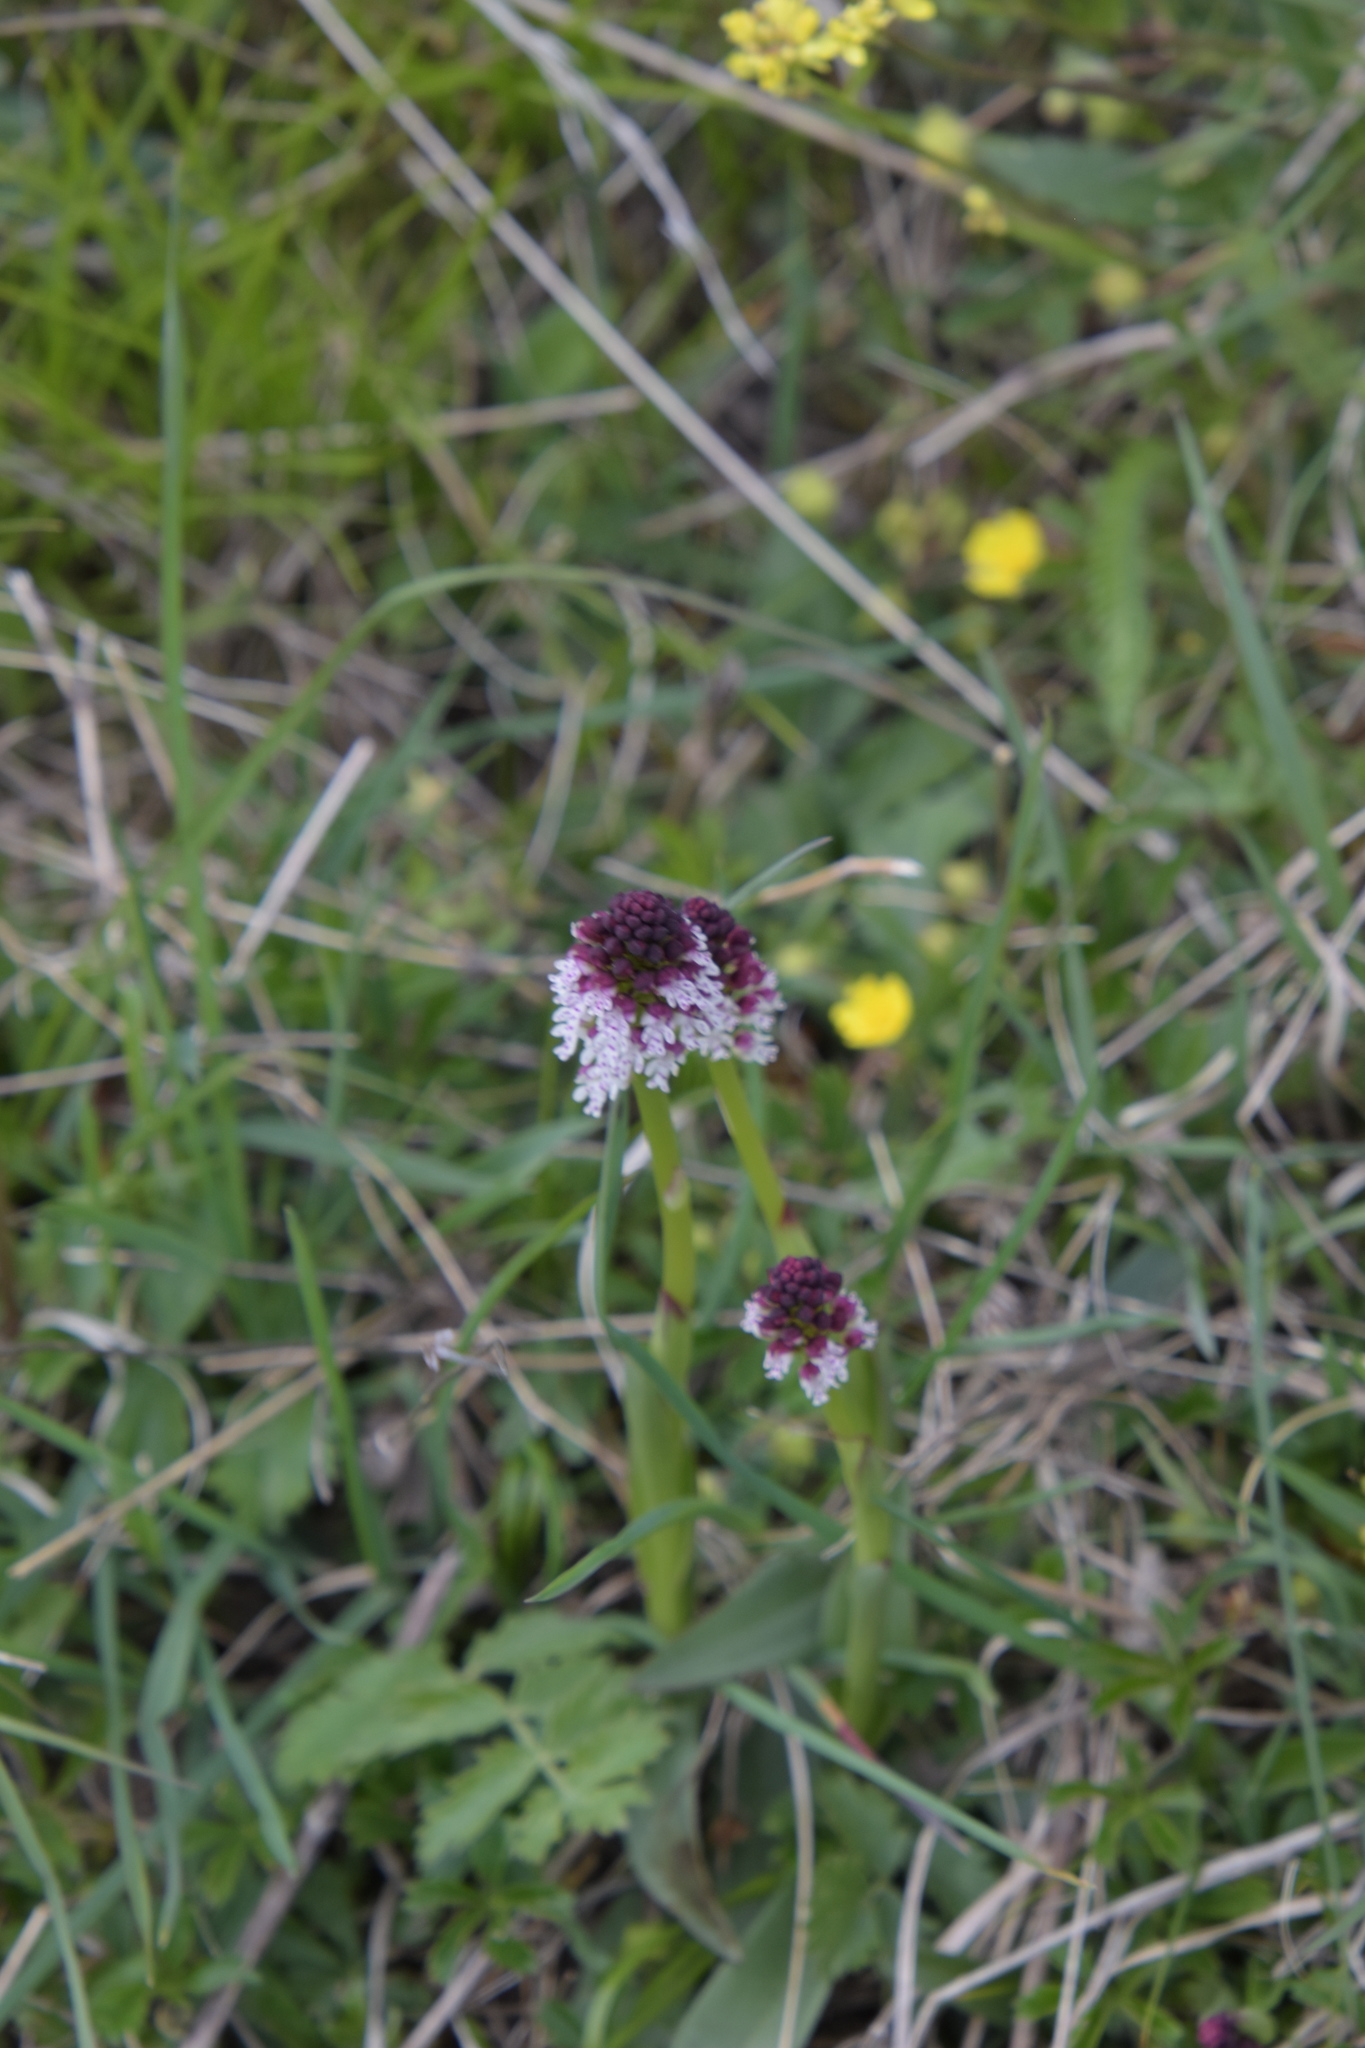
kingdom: Plantae
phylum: Tracheophyta
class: Liliopsida
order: Asparagales
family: Orchidaceae
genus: Neotinea
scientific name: Neotinea ustulata
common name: Burnt orchid
